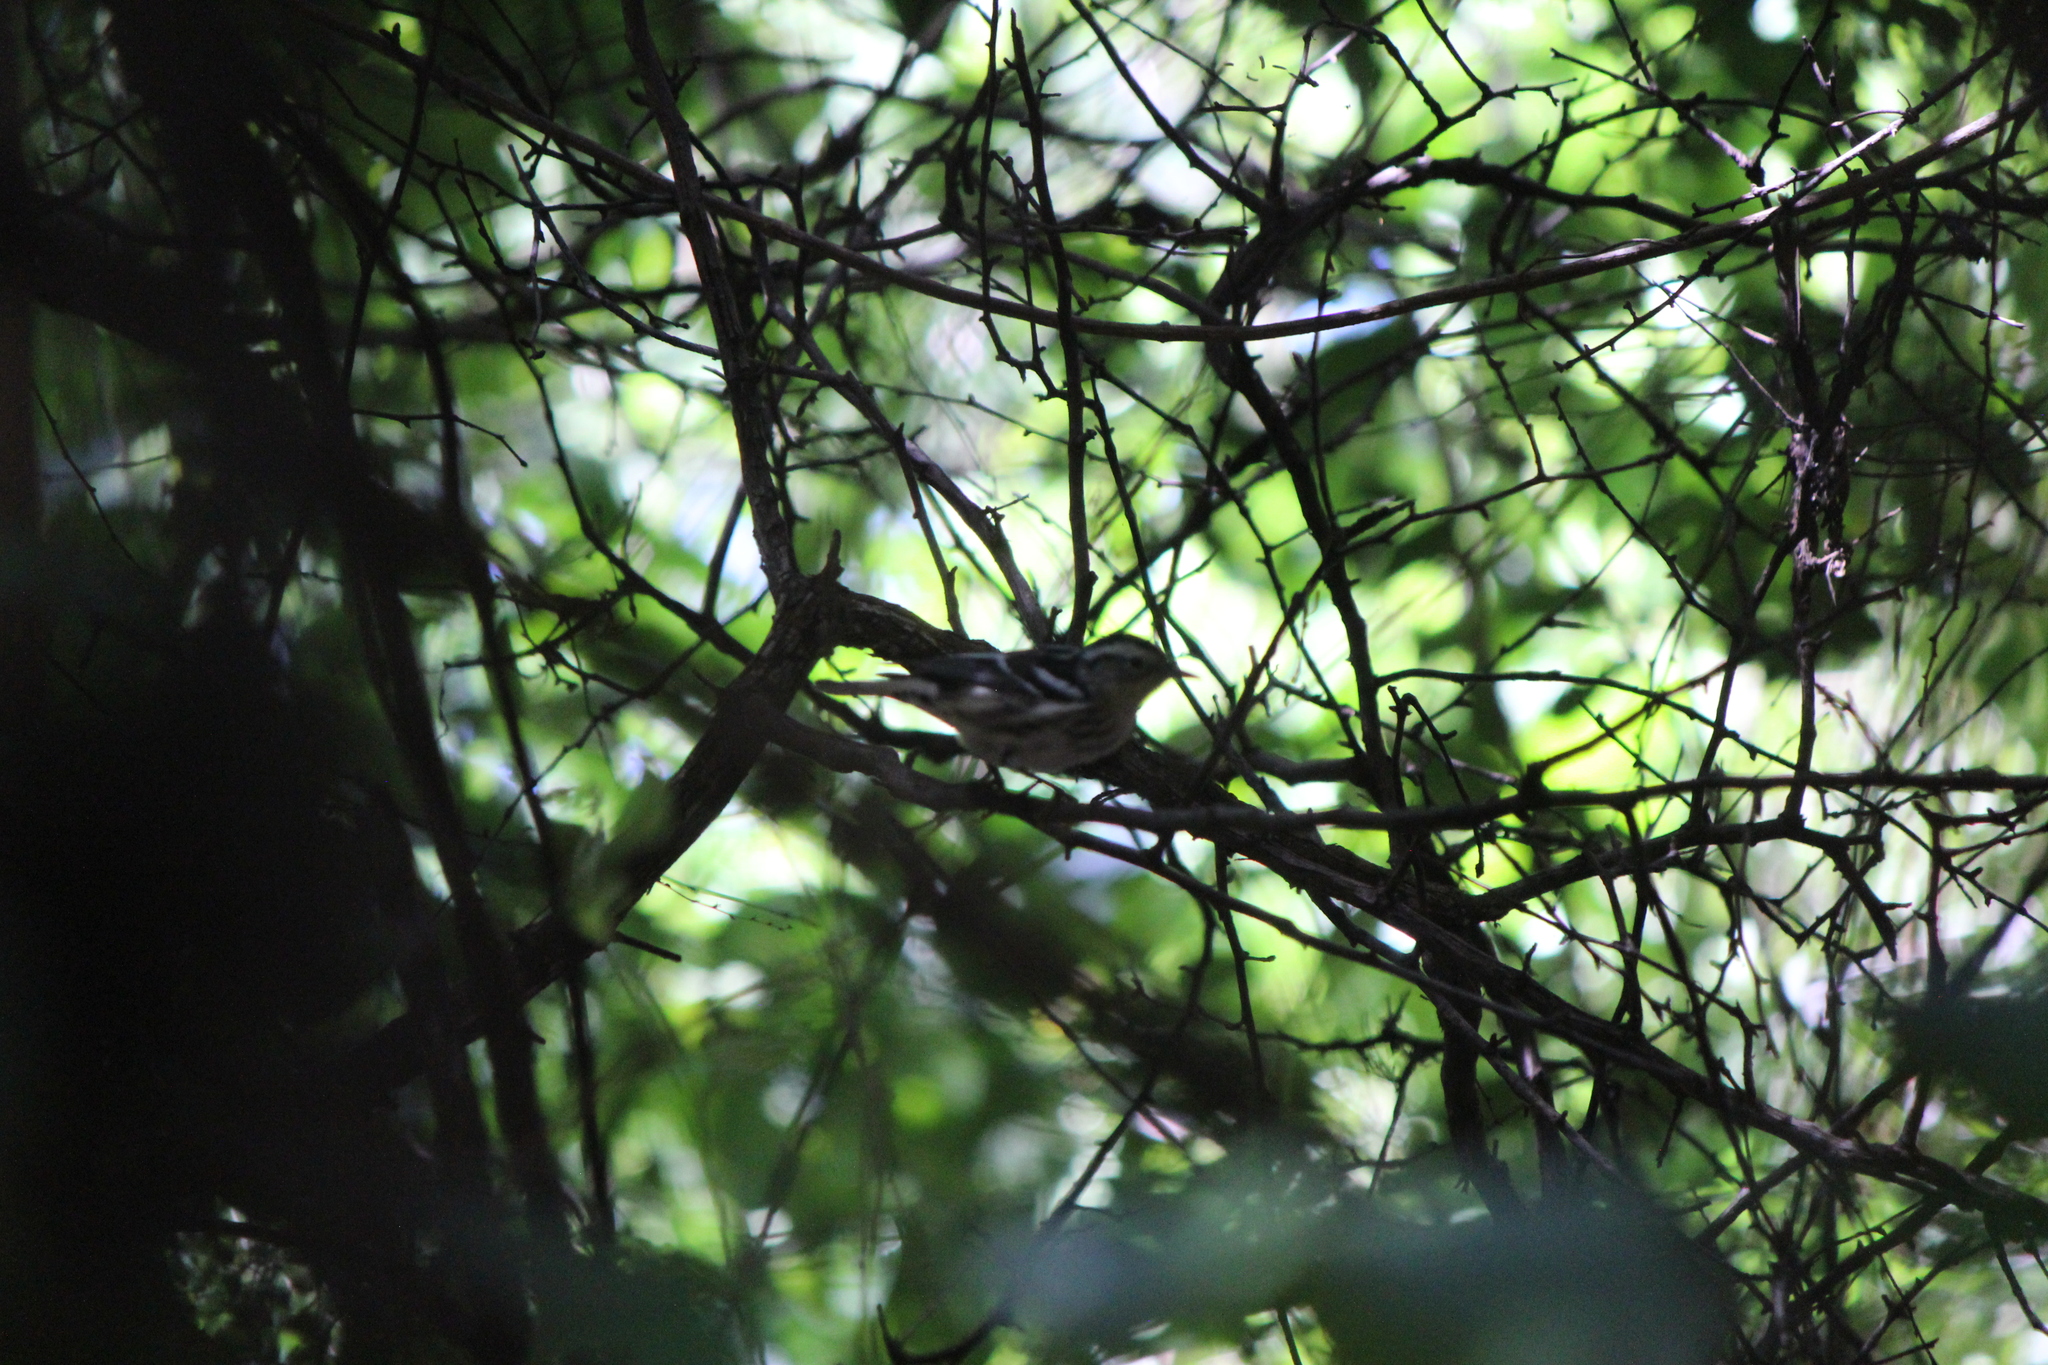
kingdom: Animalia
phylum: Chordata
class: Aves
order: Passeriformes
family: Parulidae
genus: Mniotilta
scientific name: Mniotilta varia
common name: Black-and-white warbler
